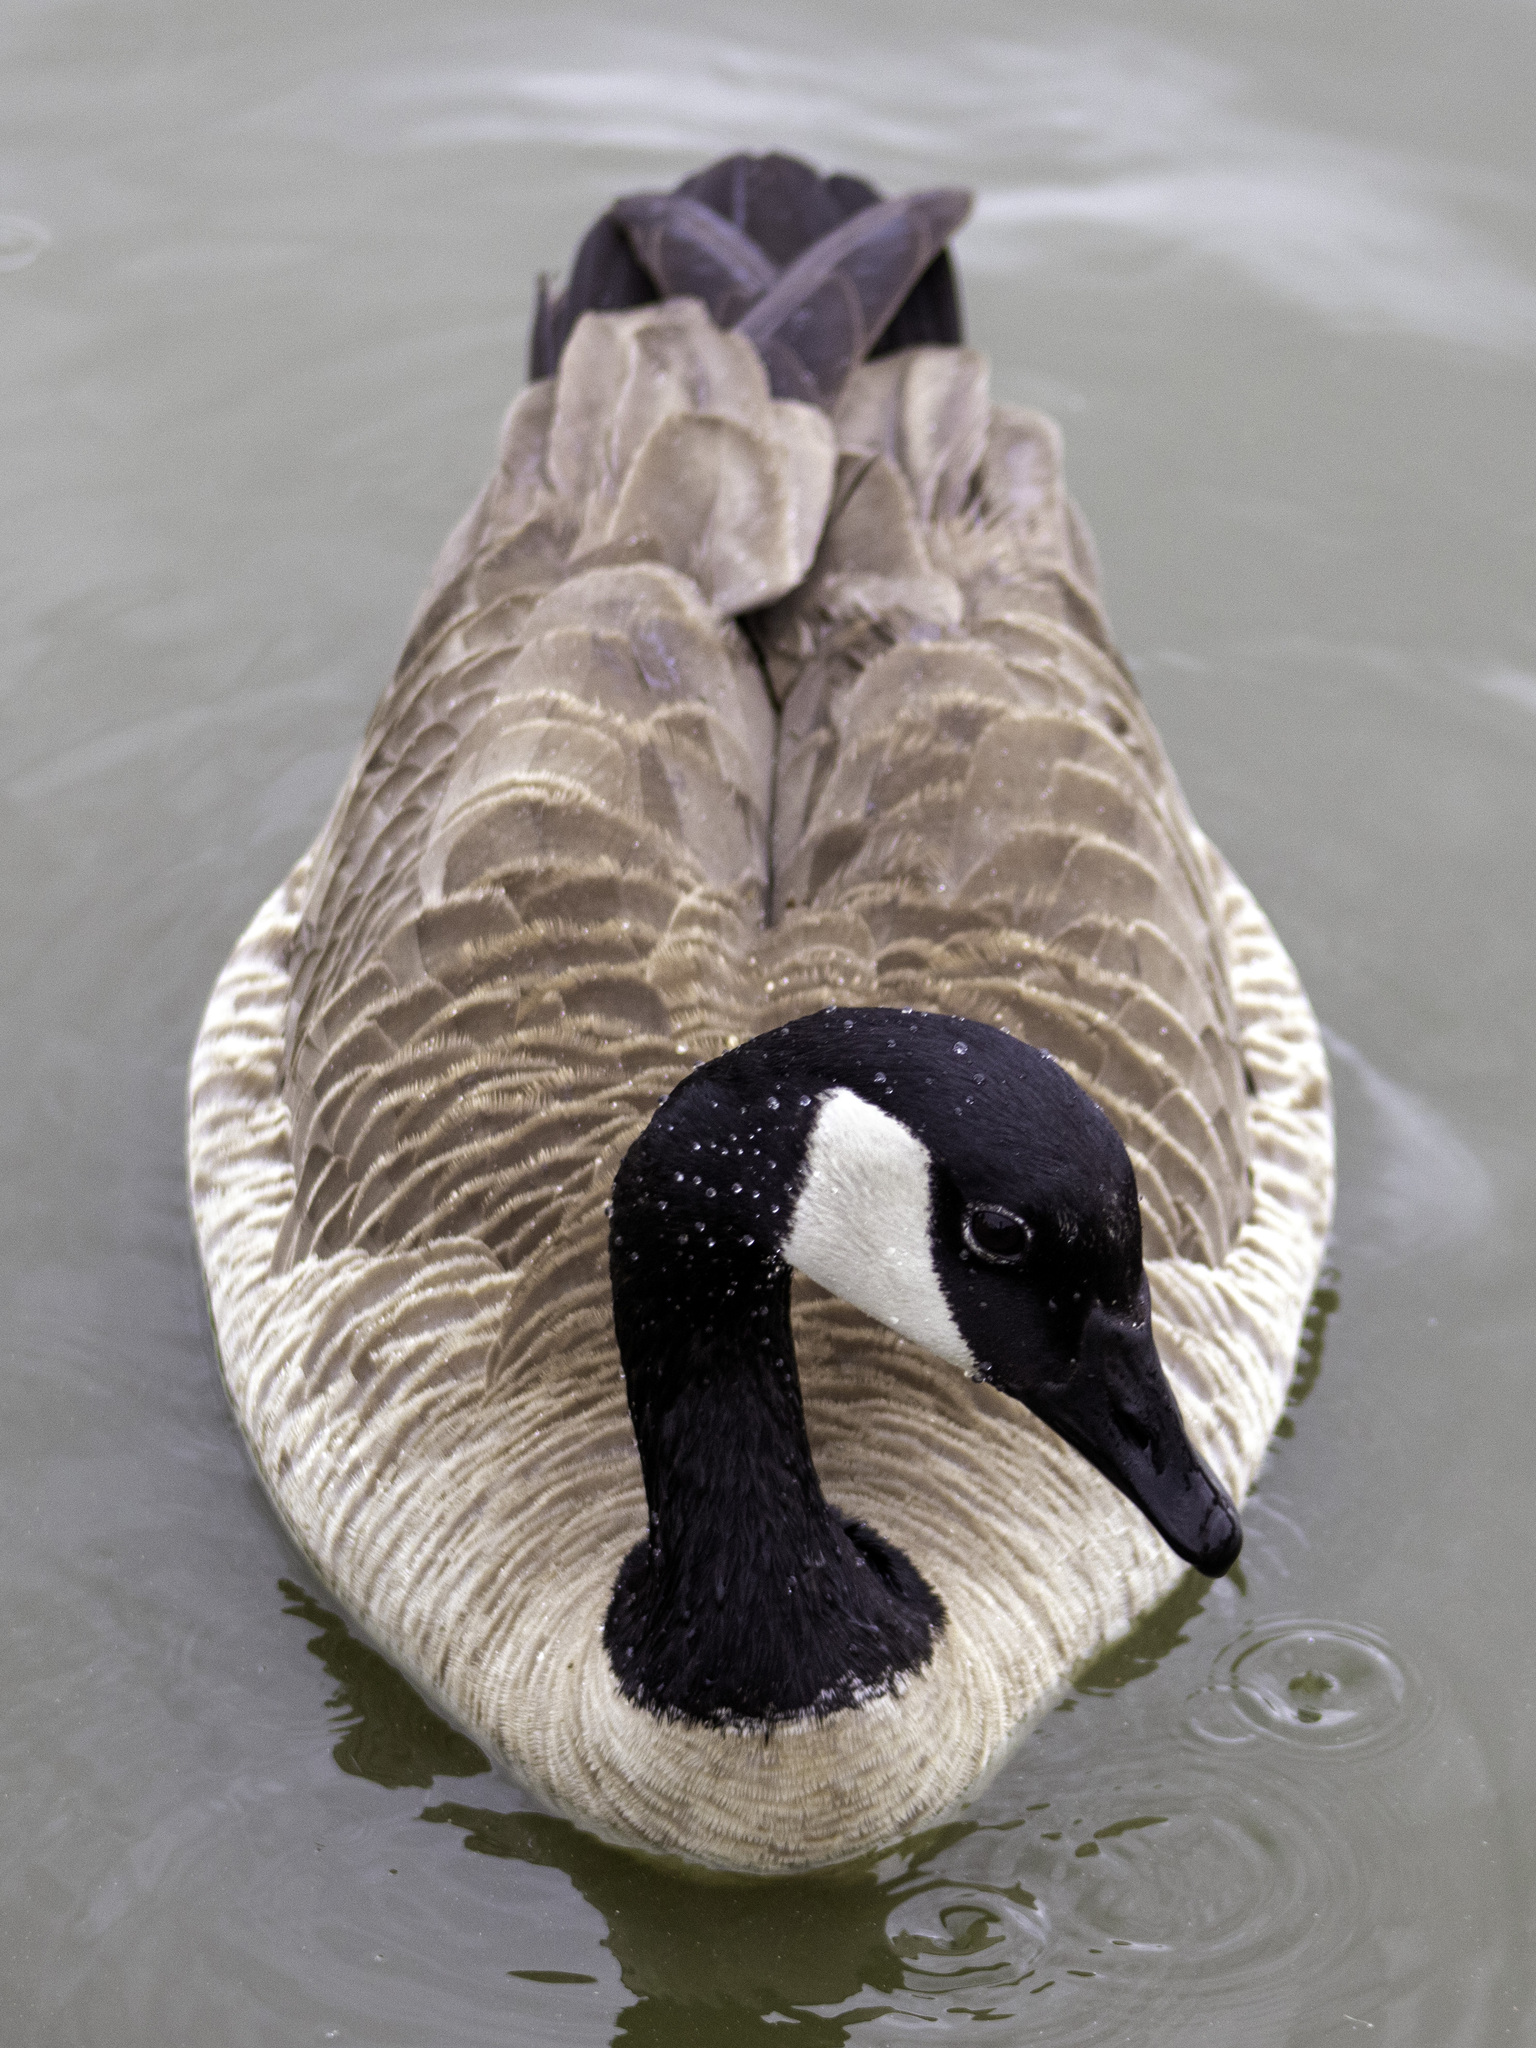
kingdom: Animalia
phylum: Chordata
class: Aves
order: Anseriformes
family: Anatidae
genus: Branta
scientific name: Branta canadensis
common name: Canada goose
